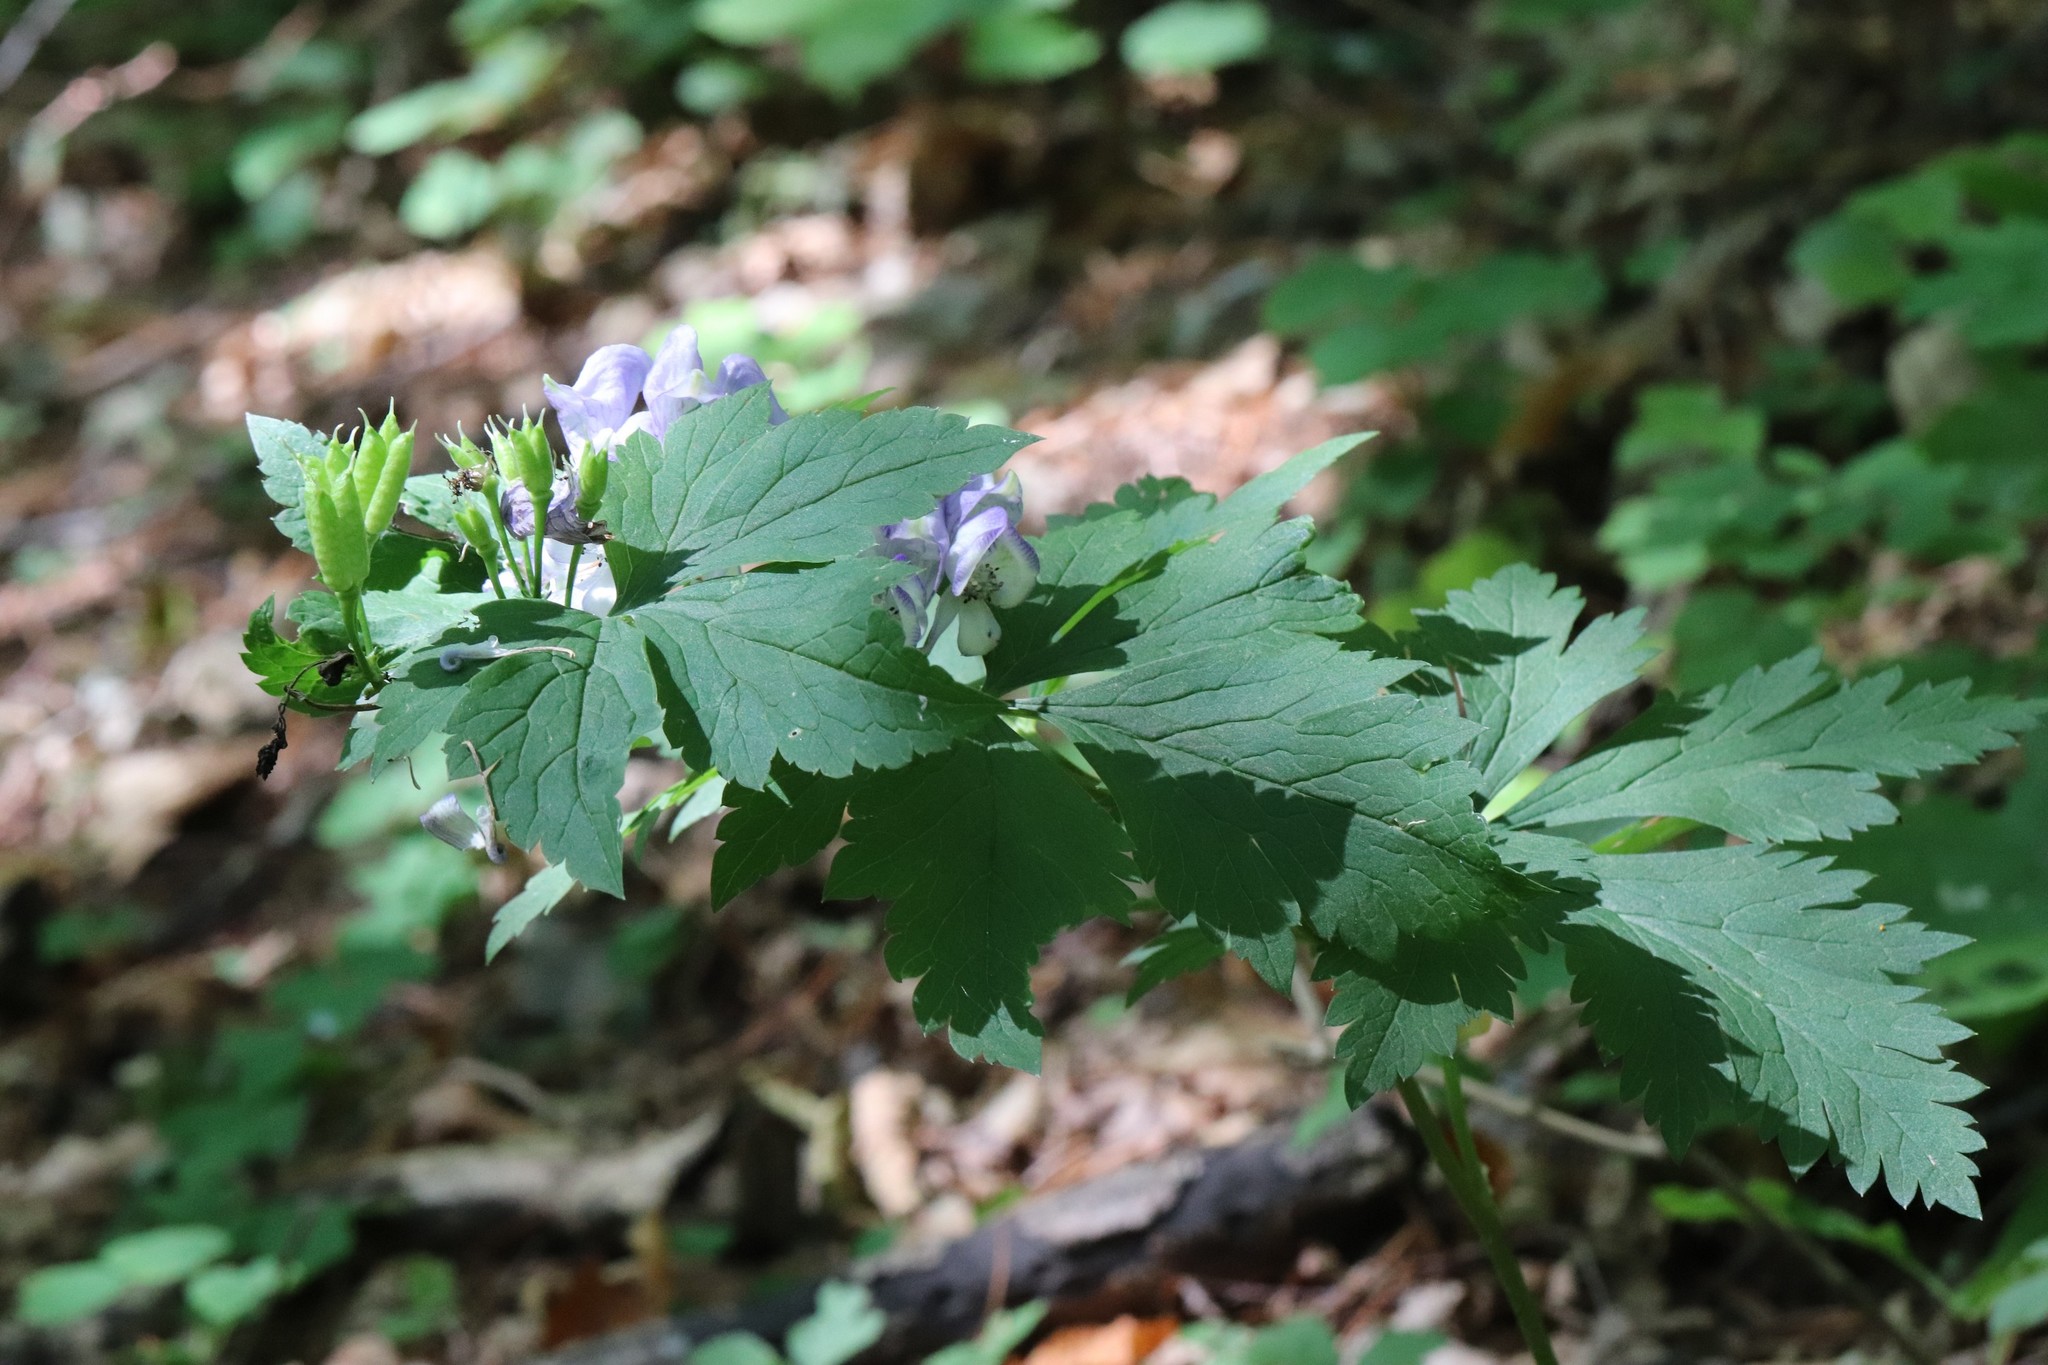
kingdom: Plantae
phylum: Tracheophyta
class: Magnoliopsida
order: Ranunculales
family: Ranunculaceae
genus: Aconitum
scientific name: Aconitum sczukinii
